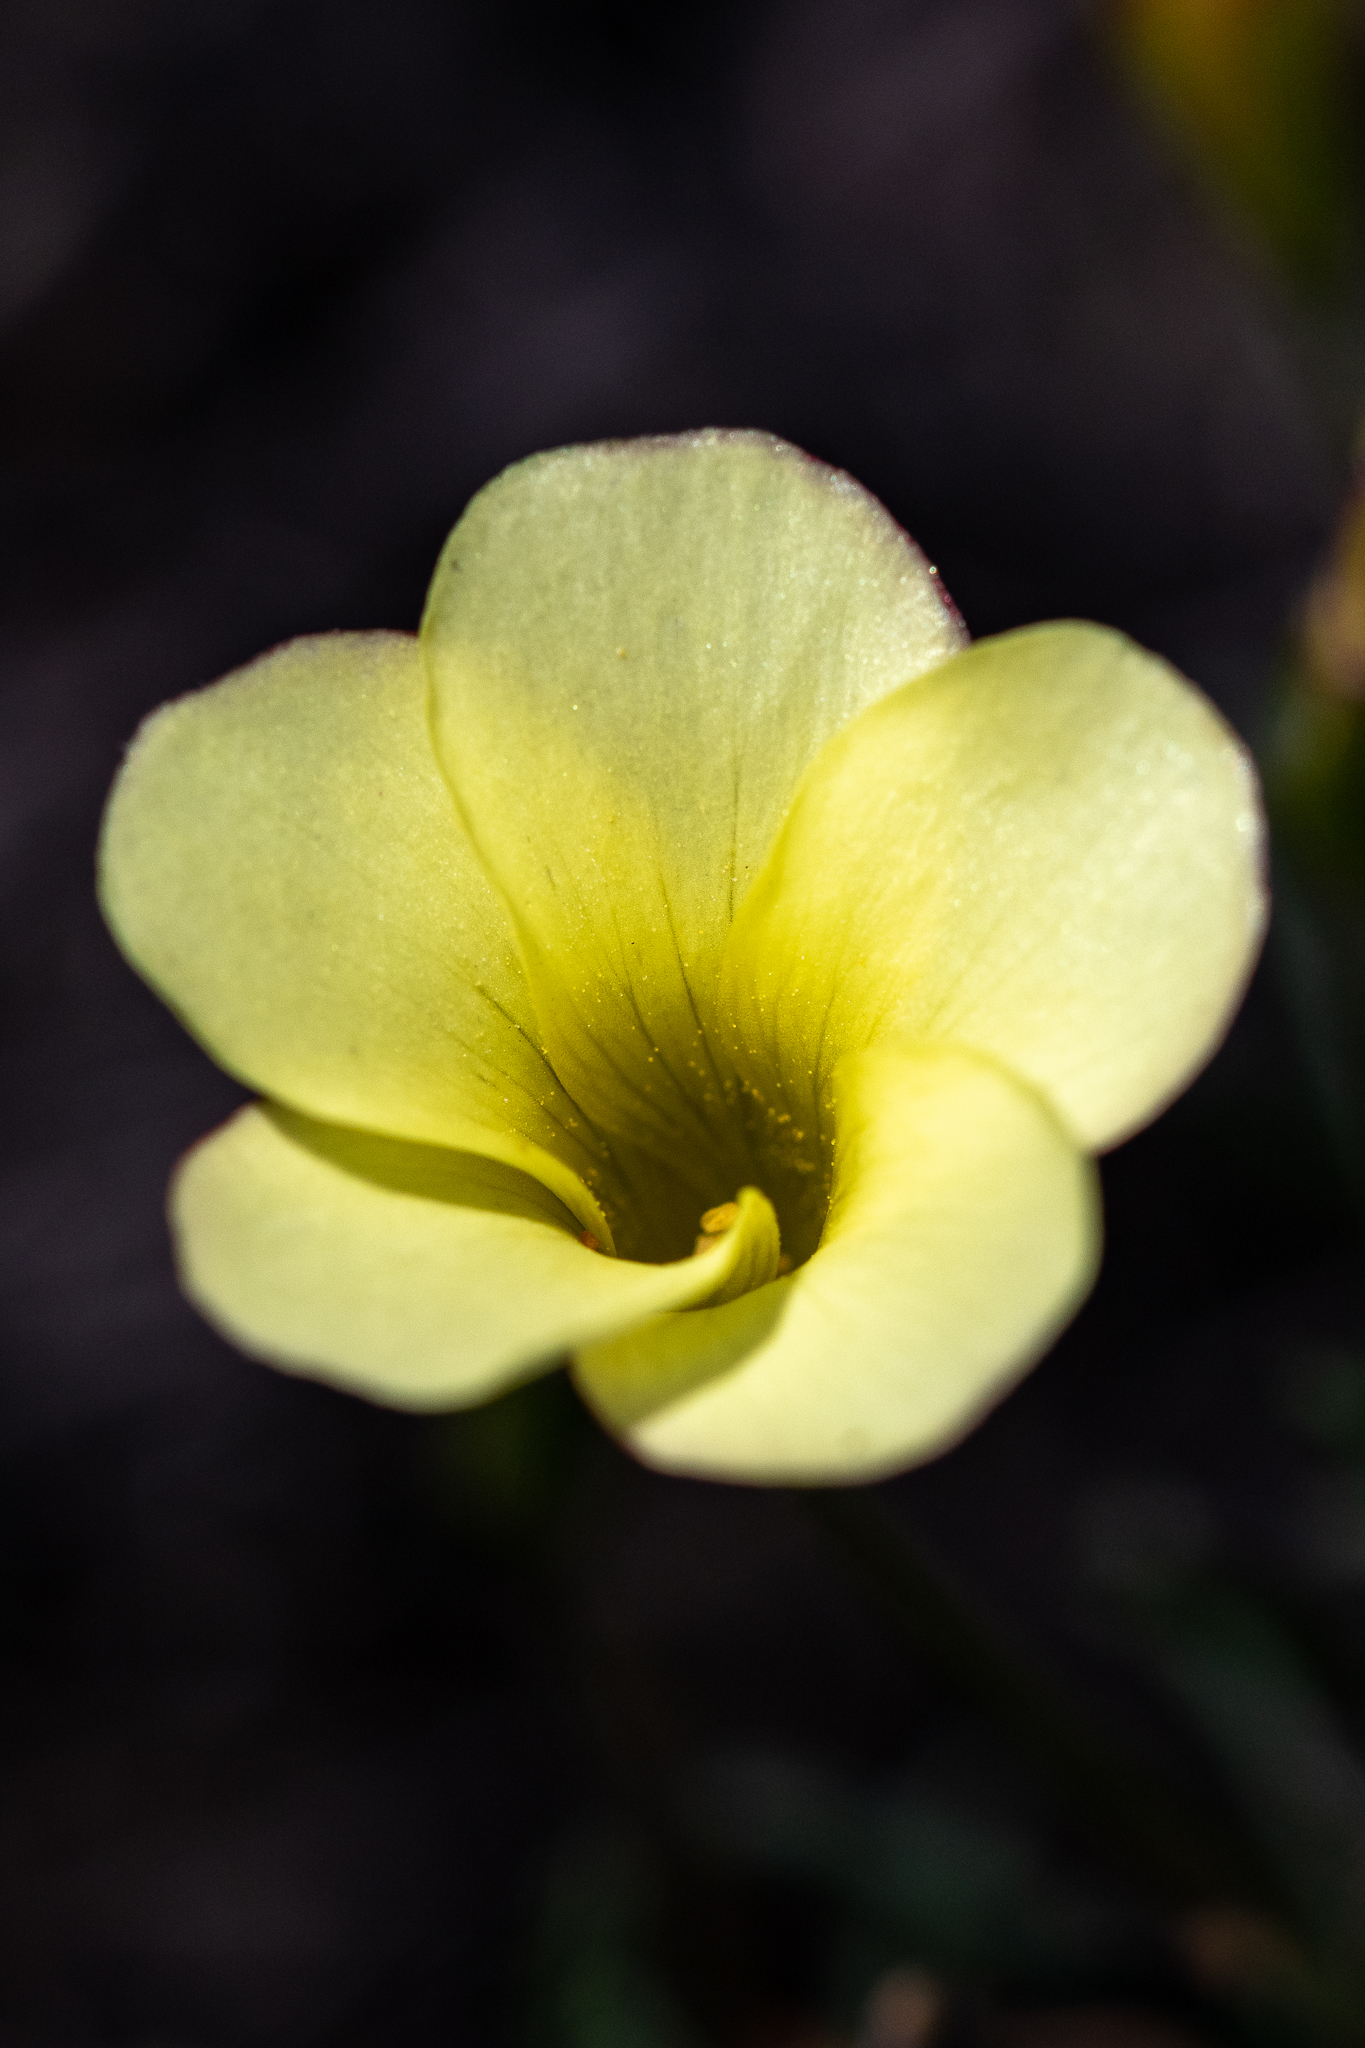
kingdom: Plantae
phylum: Tracheophyta
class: Magnoliopsida
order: Oxalidales
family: Oxalidaceae
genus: Oxalis
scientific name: Oxalis versicolor
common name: Peppermint rock oxalis
